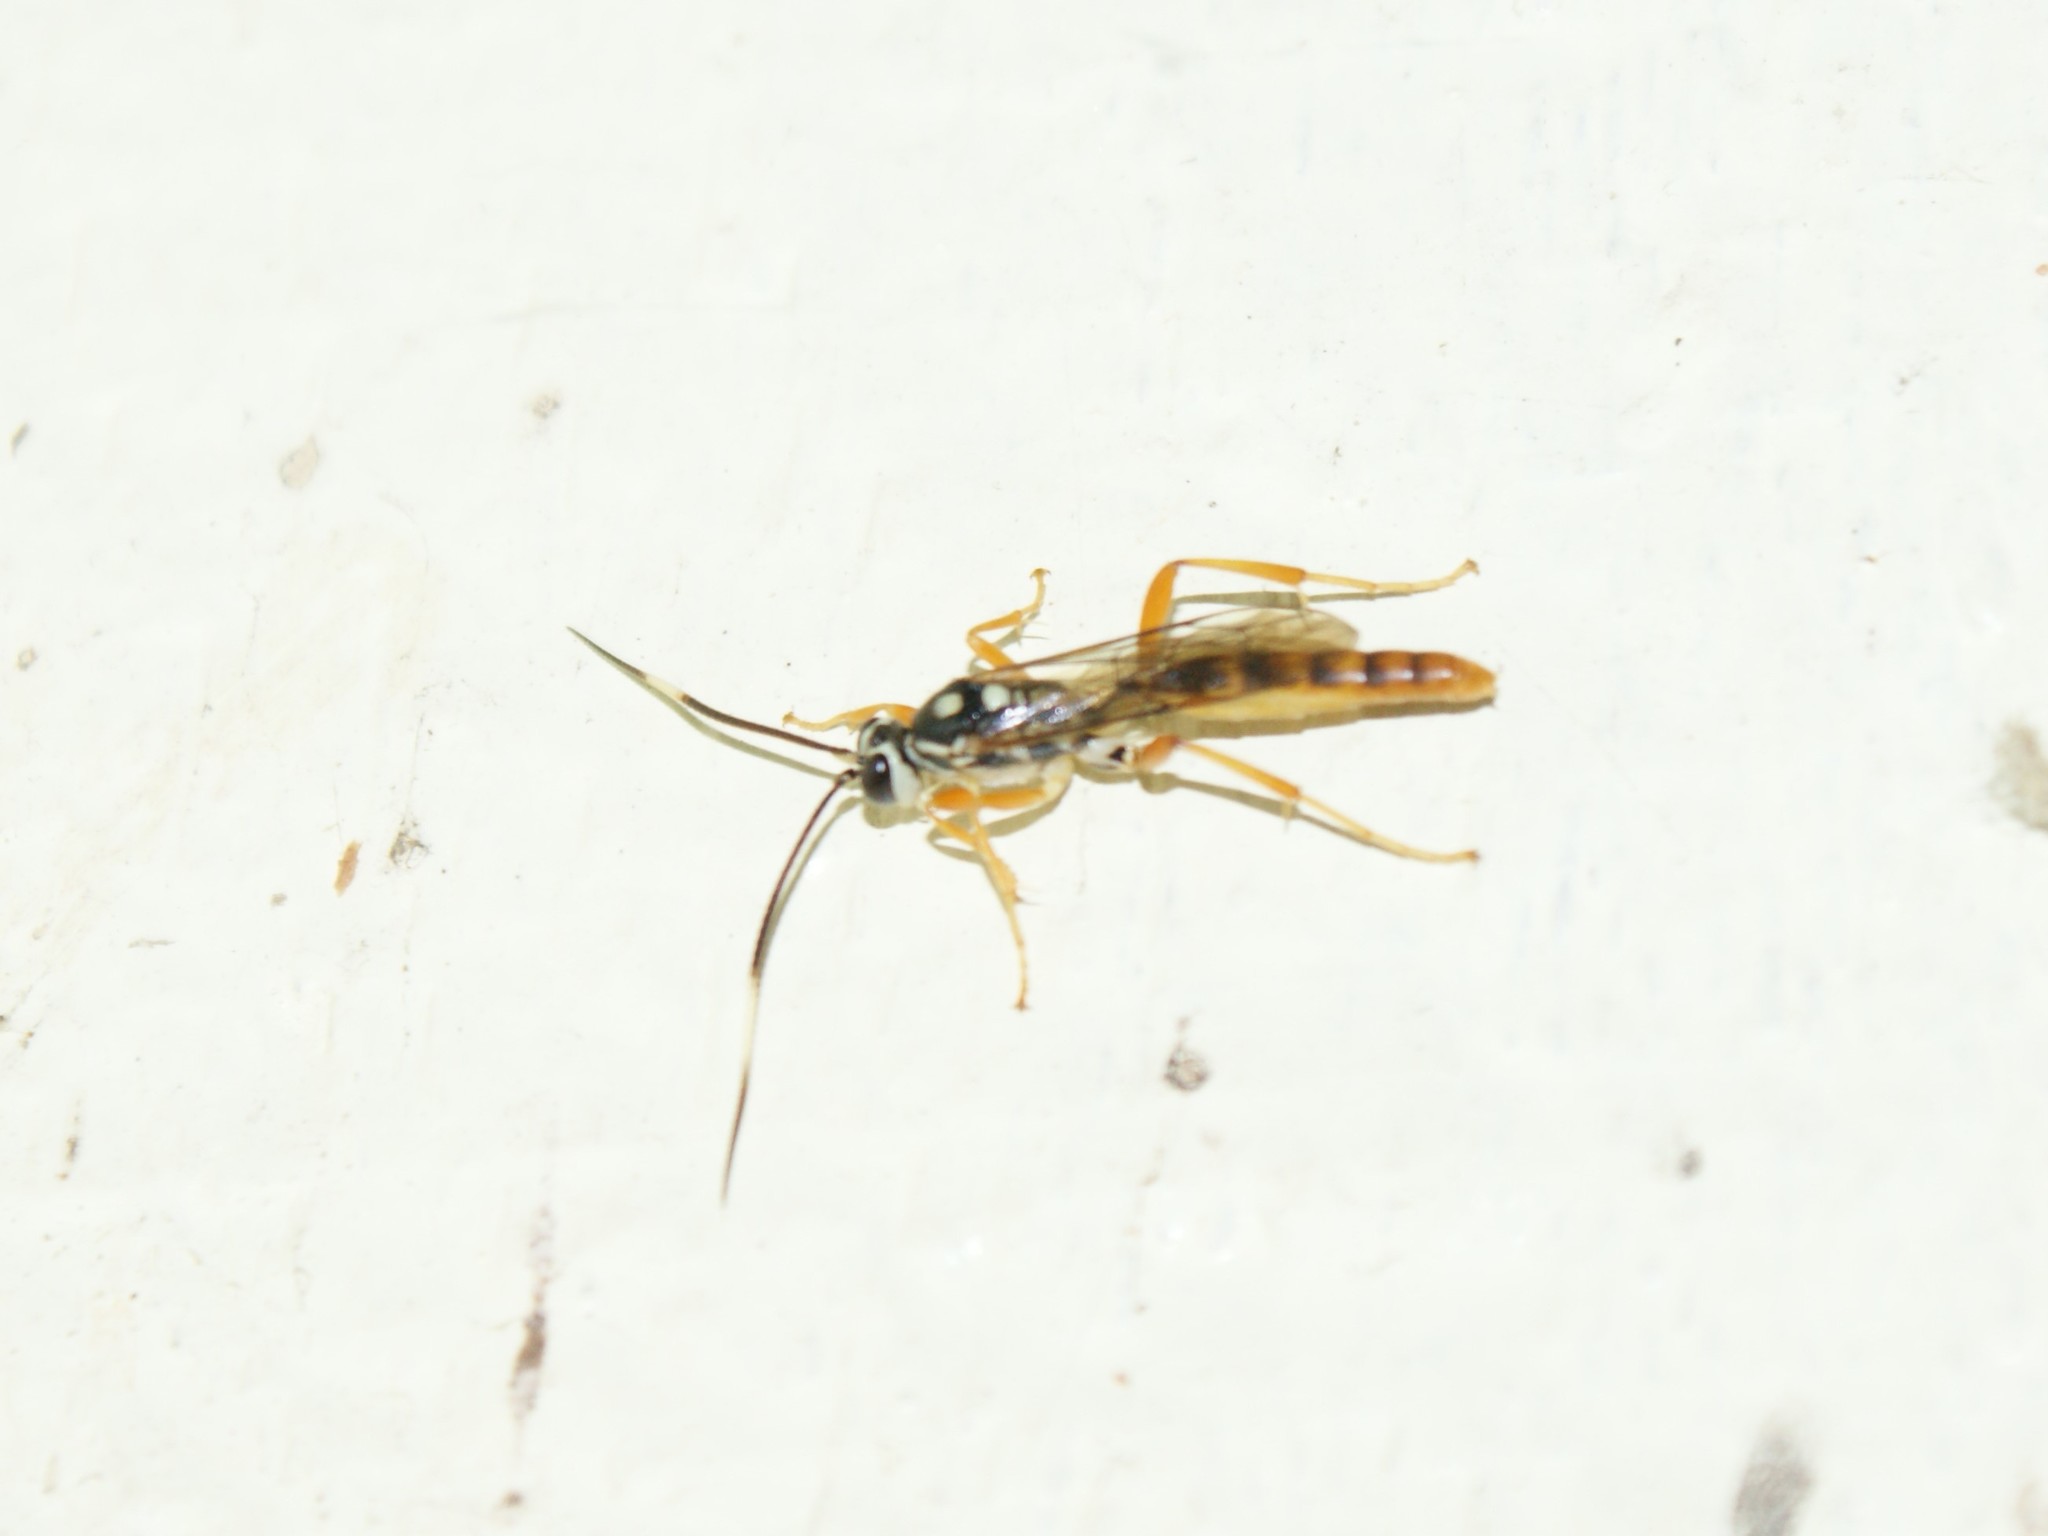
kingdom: Animalia
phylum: Arthropoda
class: Insecta
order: Hymenoptera
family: Ichneumonidae
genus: Cratichneumon
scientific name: Cratichneumon w-album
